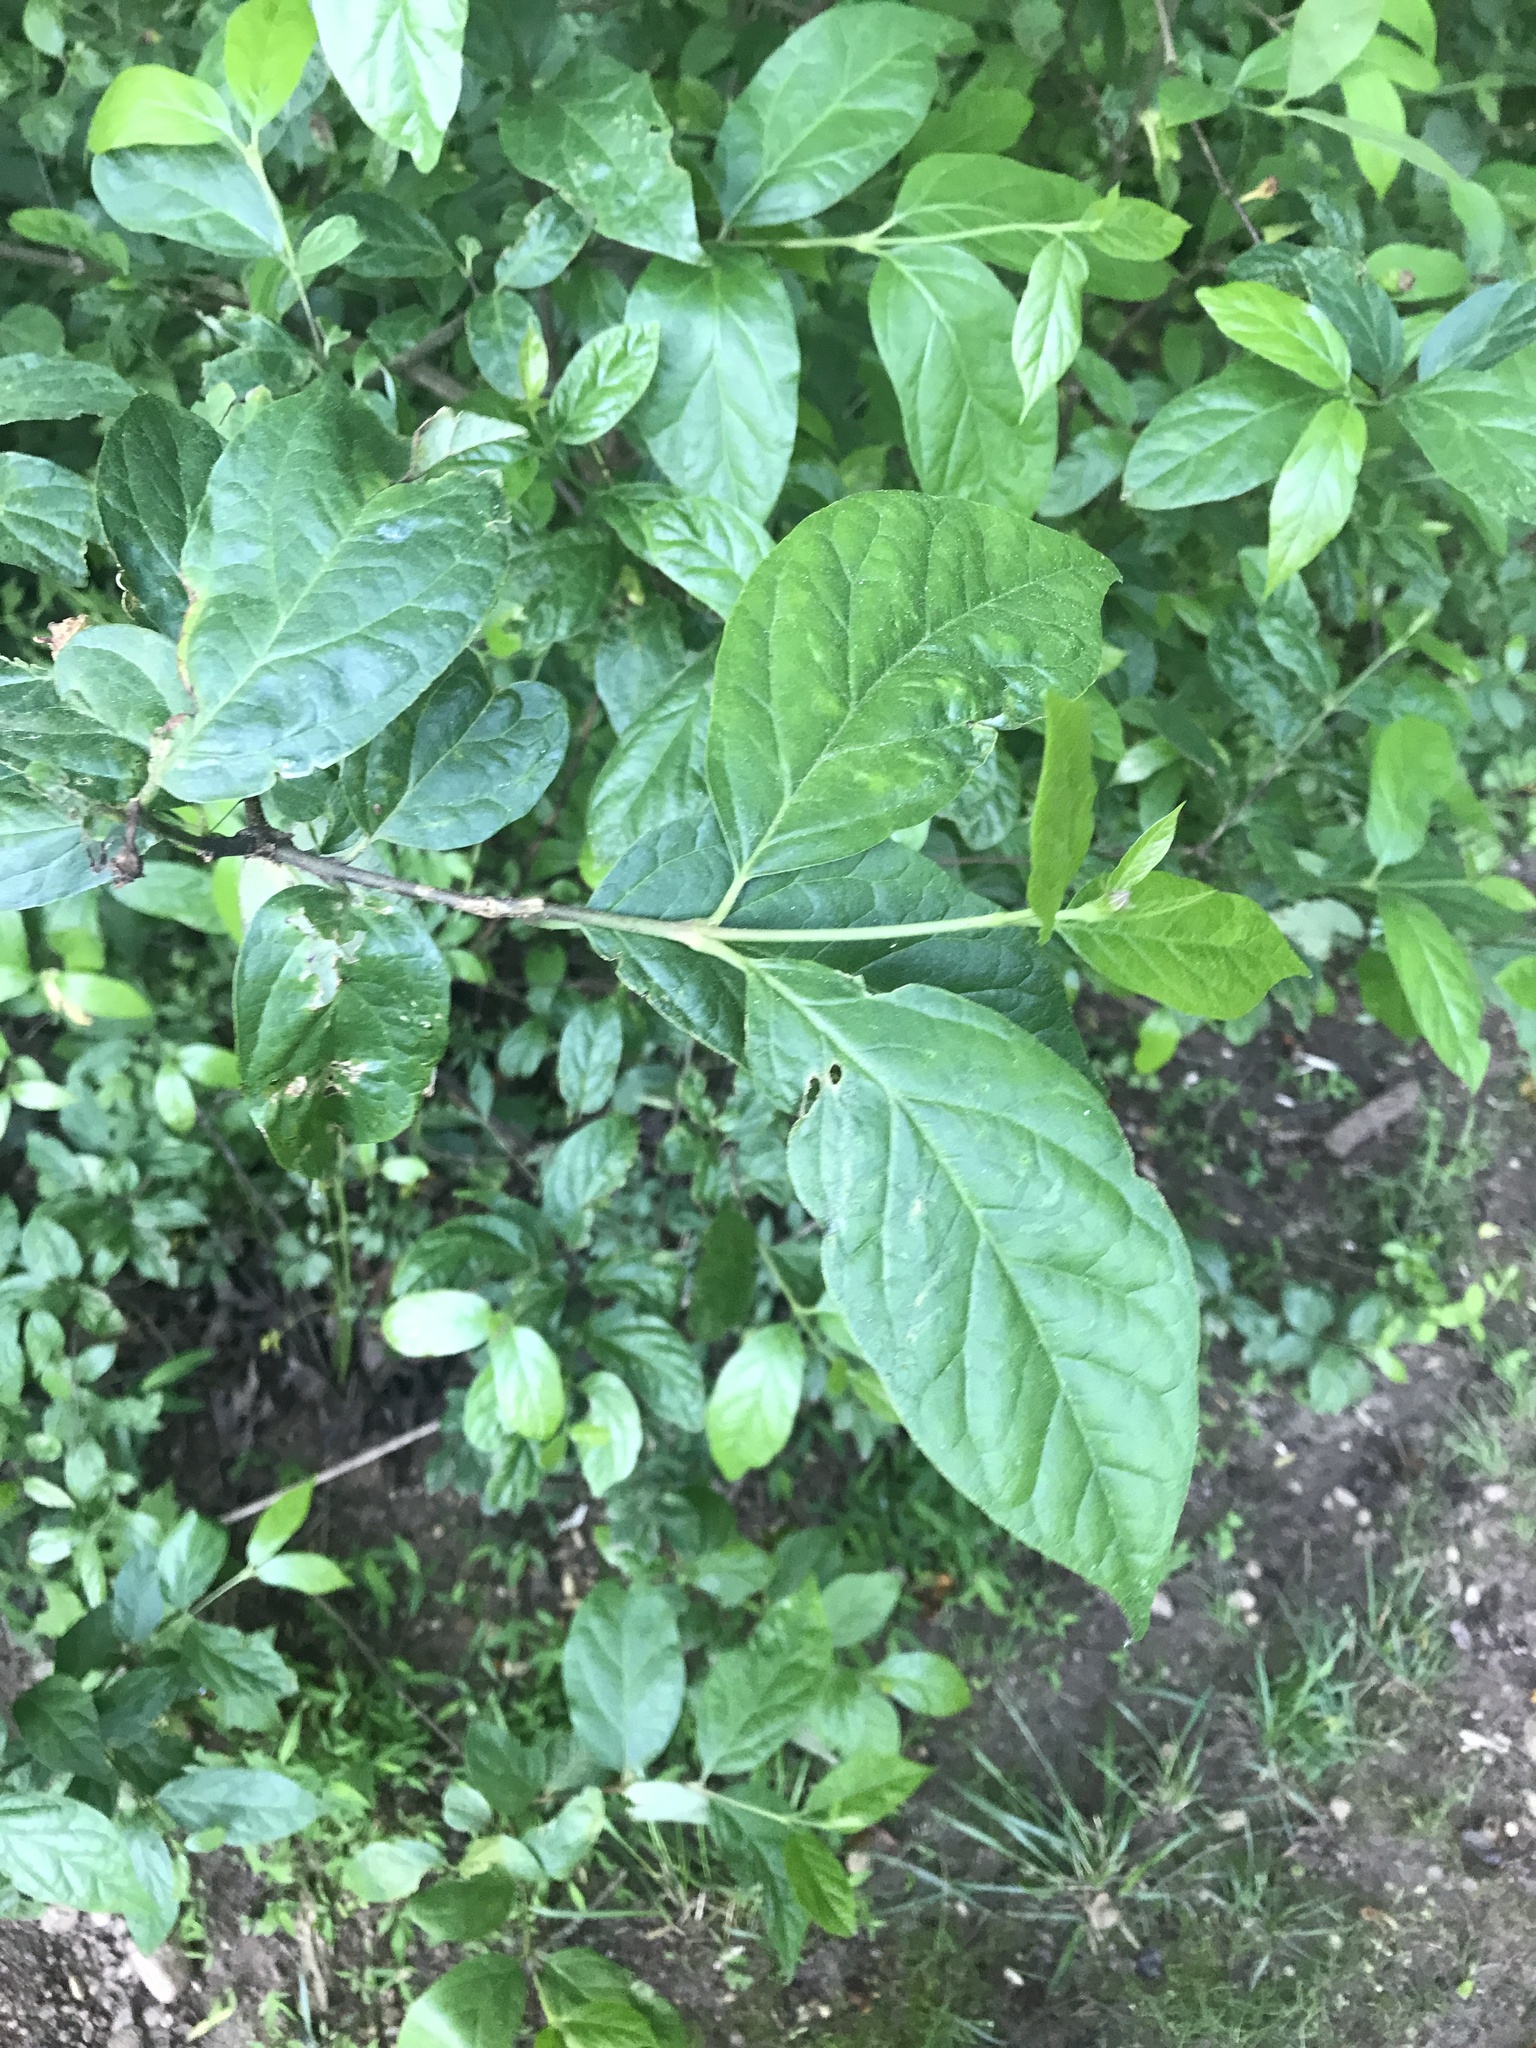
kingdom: Plantae
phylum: Tracheophyta
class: Magnoliopsida
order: Laurales
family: Calycanthaceae
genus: Calycanthus
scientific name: Calycanthus floridus
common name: Carolina-allspice
